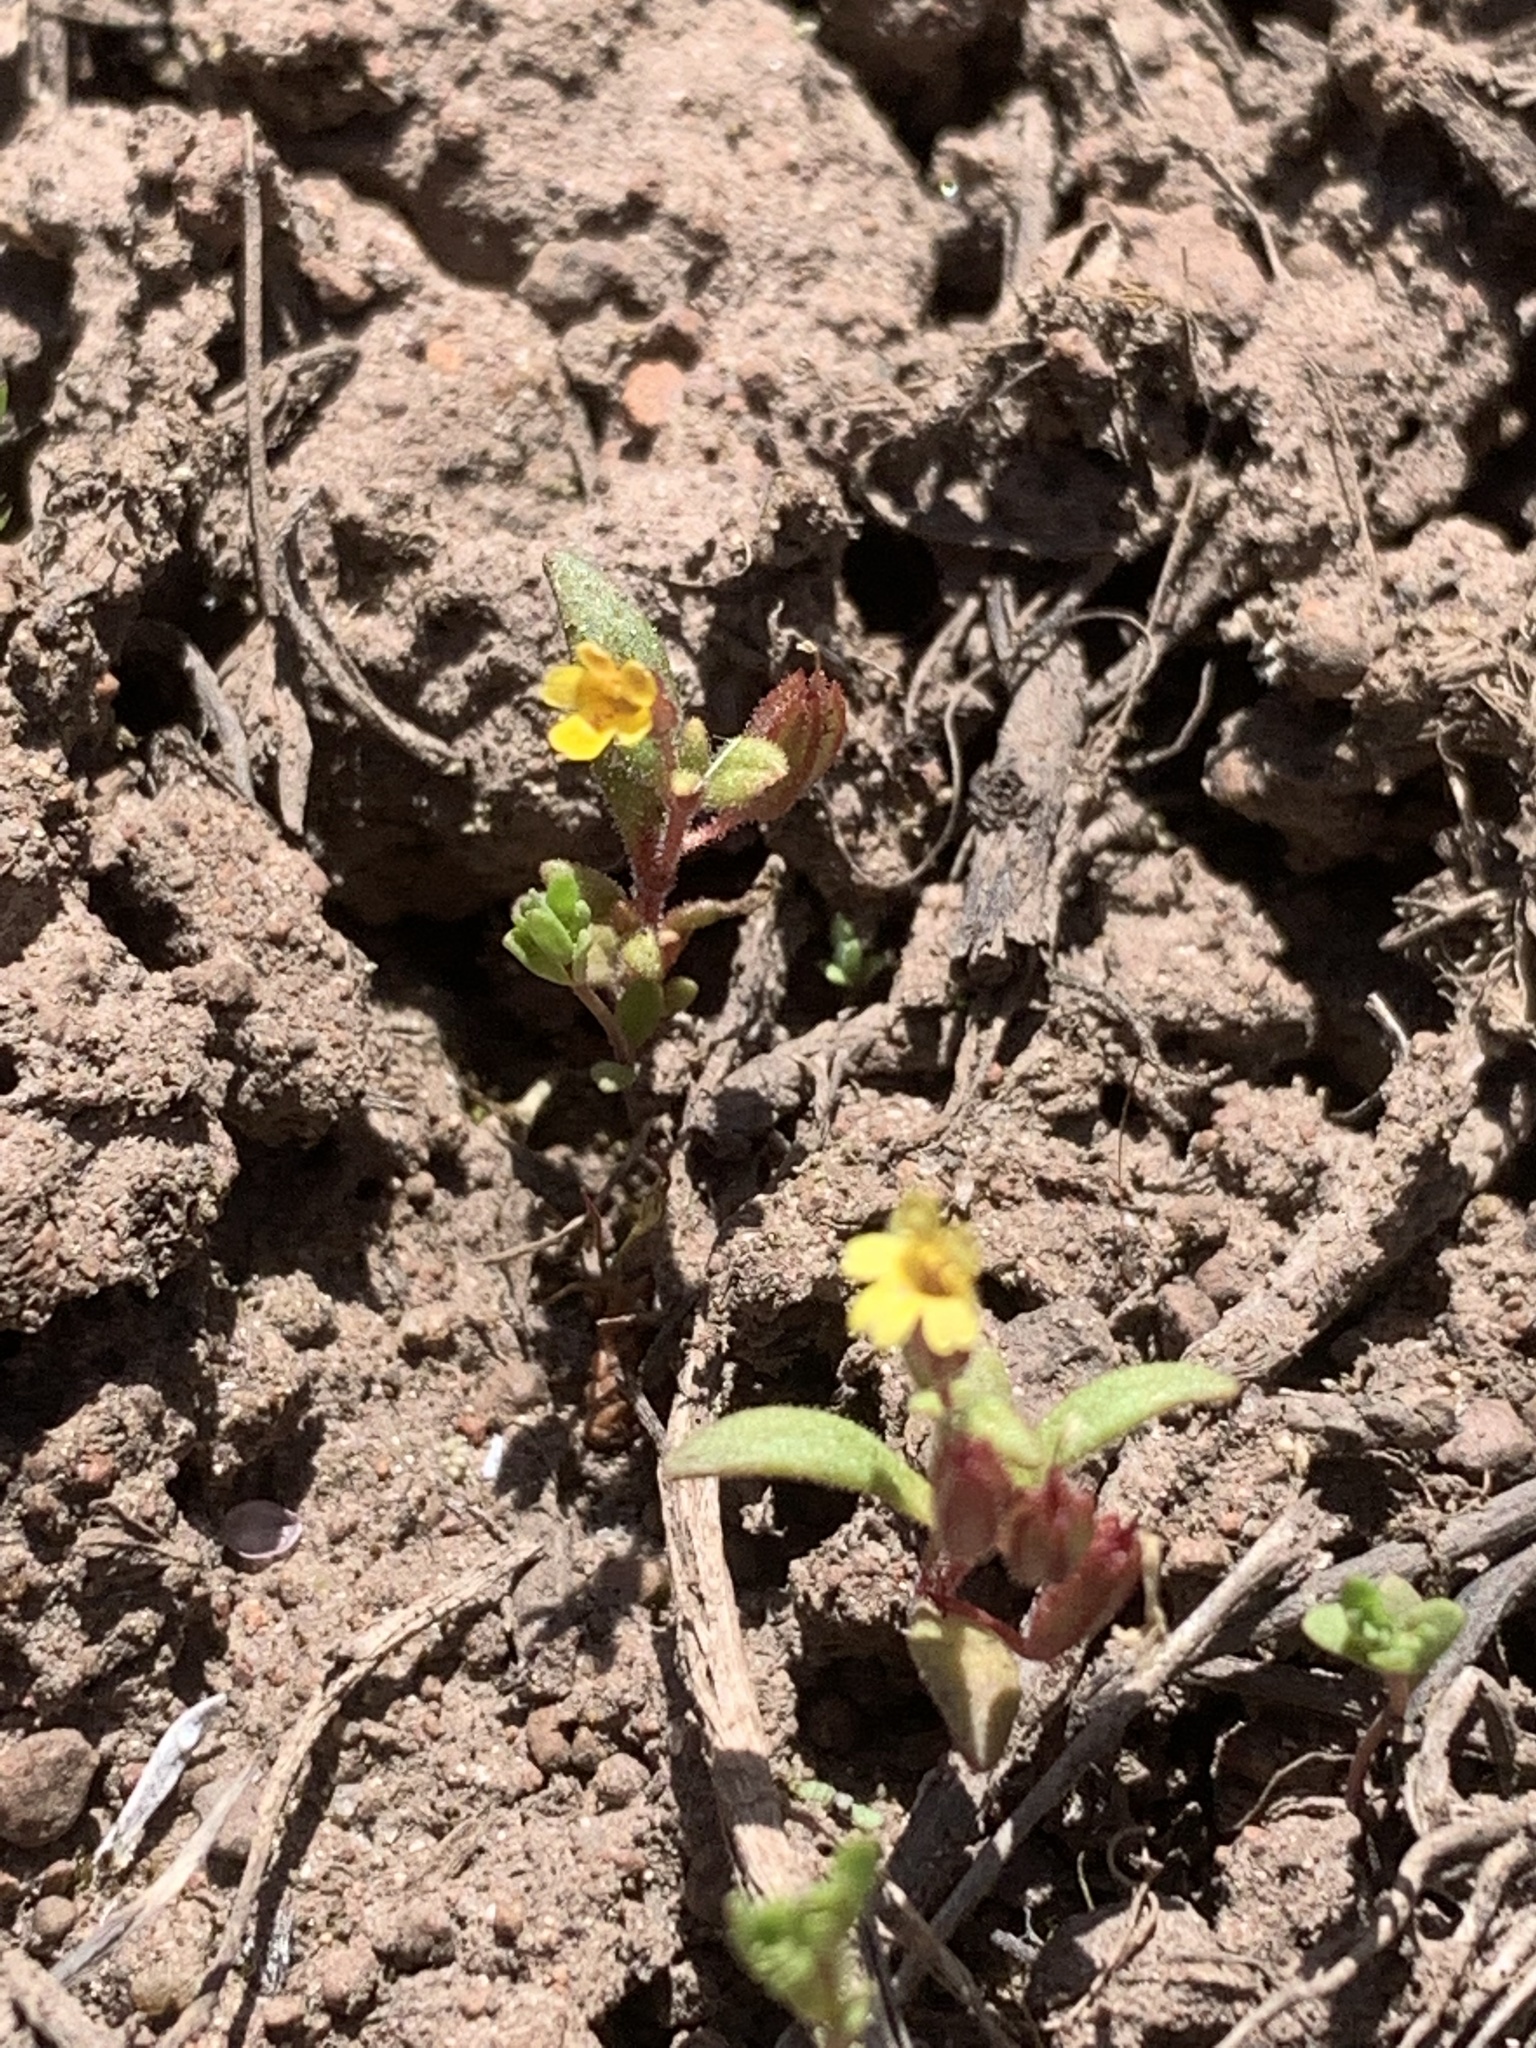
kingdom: Plantae
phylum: Tracheophyta
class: Magnoliopsida
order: Lamiales
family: Phrymaceae
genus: Erythranthe
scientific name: Erythranthe suksdorfii
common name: Suksdorf's monkeyflower
